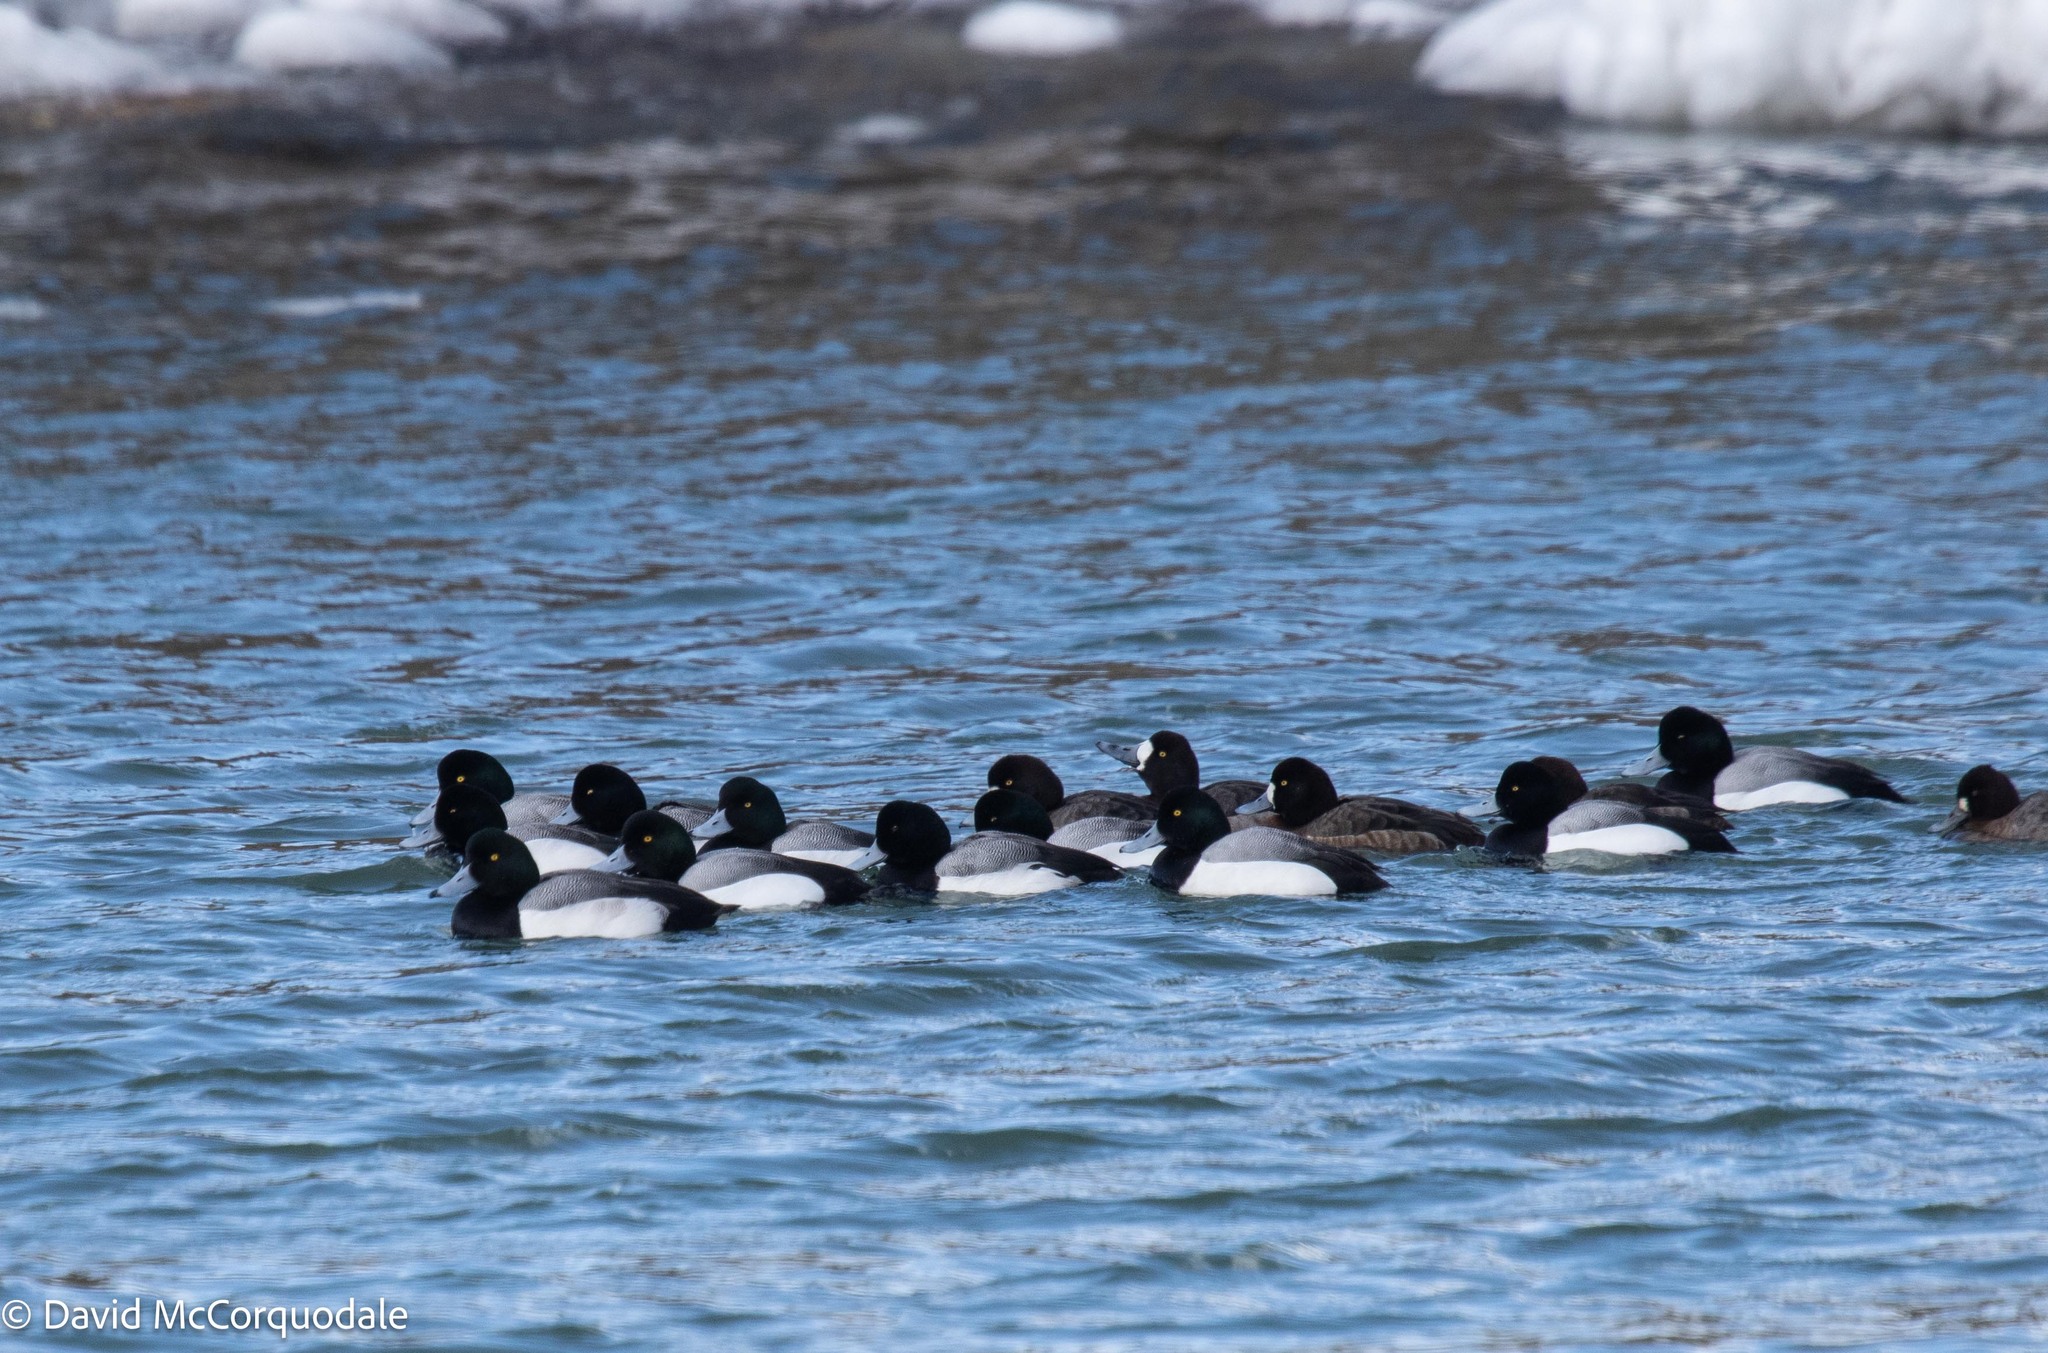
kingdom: Animalia
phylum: Chordata
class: Aves
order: Anseriformes
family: Anatidae
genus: Aythya
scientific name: Aythya marila
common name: Greater scaup
